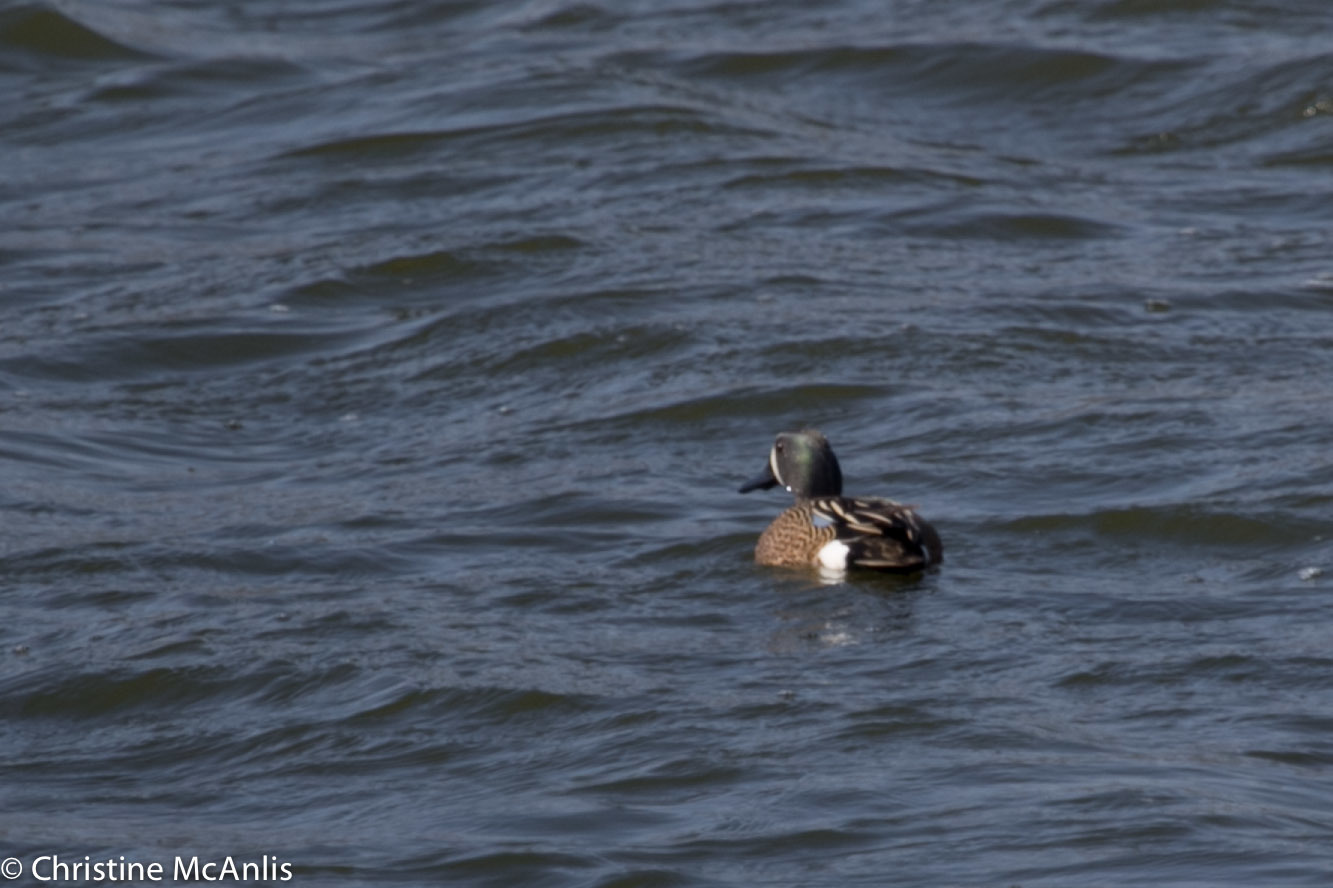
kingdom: Animalia
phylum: Chordata
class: Aves
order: Anseriformes
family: Anatidae
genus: Spatula
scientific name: Spatula discors
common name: Blue-winged teal
